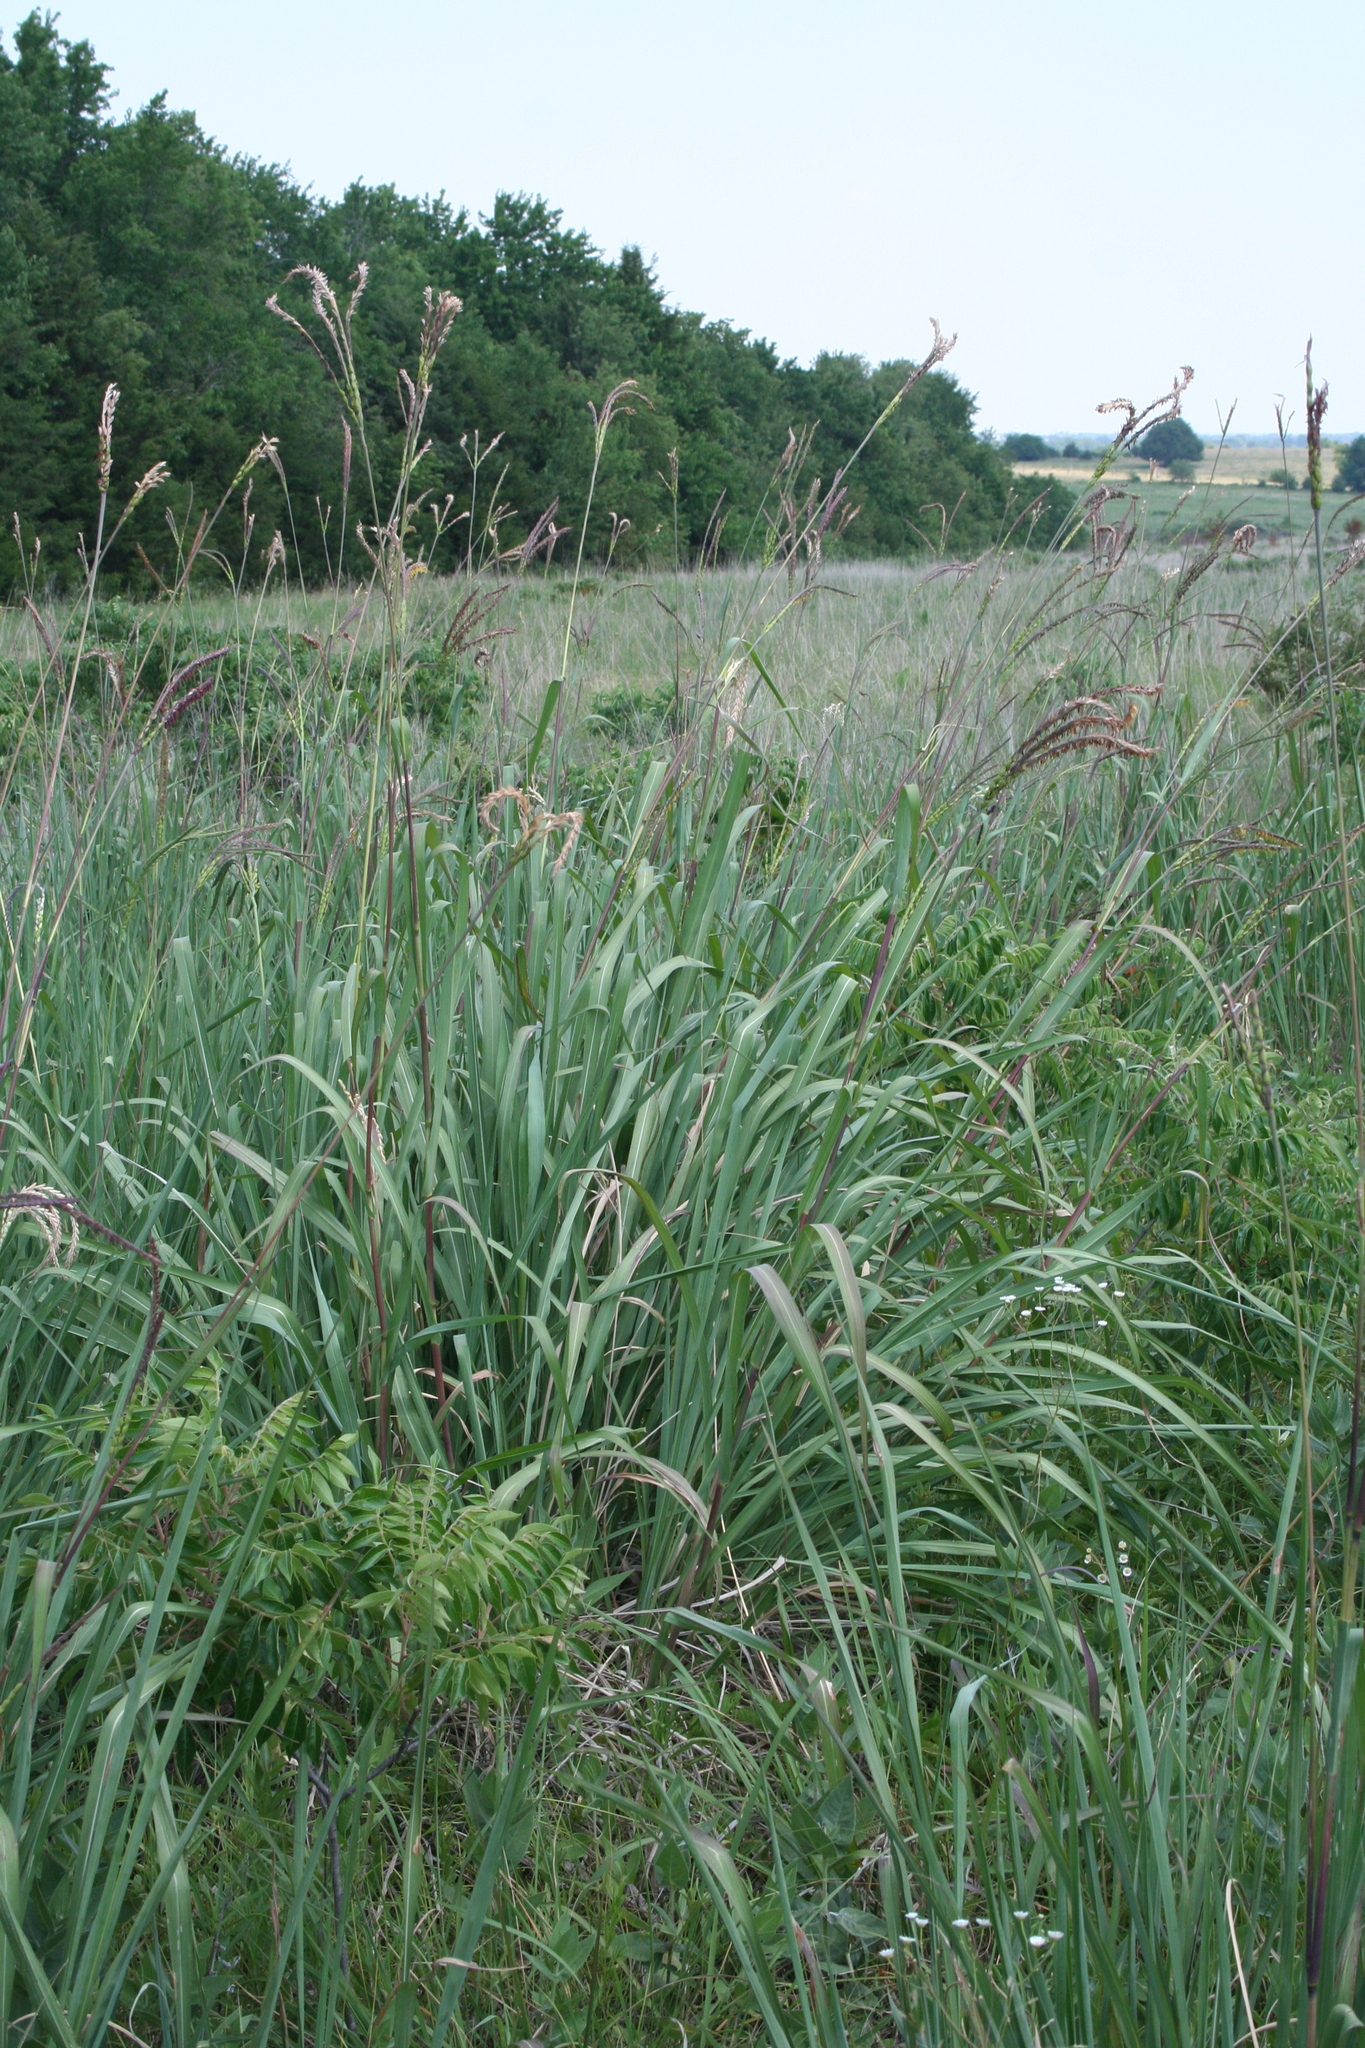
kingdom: Plantae
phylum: Tracheophyta
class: Liliopsida
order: Poales
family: Poaceae
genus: Tripsacum
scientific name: Tripsacum dactyloides
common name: Buffalo-grass
